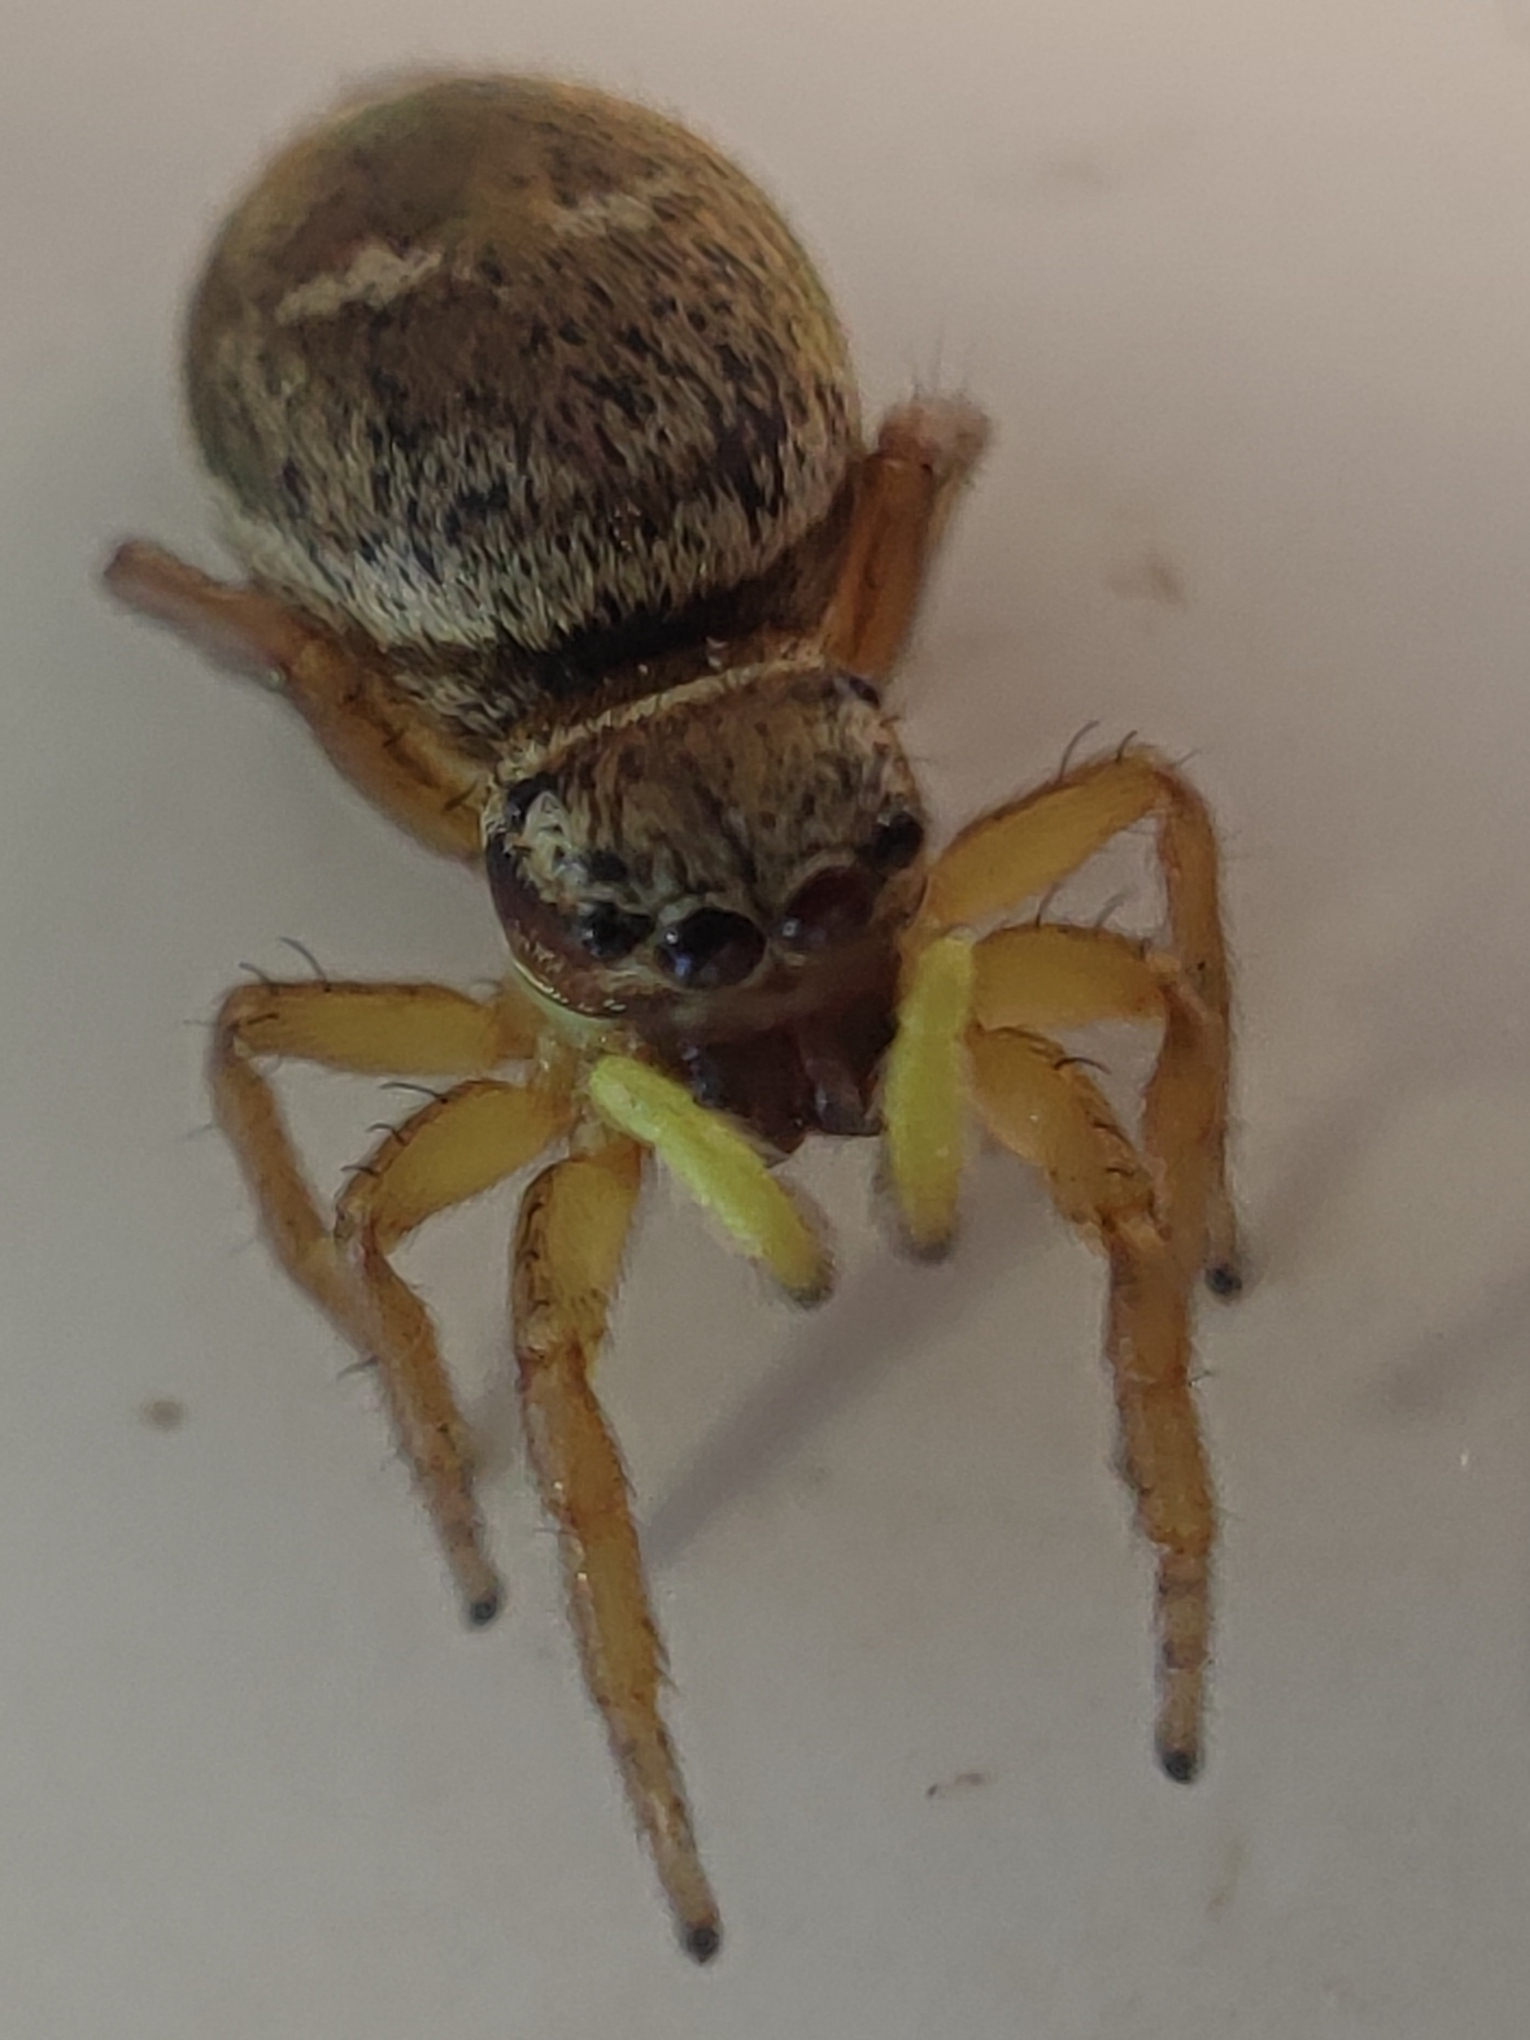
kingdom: Animalia
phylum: Arthropoda
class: Arachnida
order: Araneae
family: Salticidae
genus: Heliophanus
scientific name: Heliophanus tribulosus
